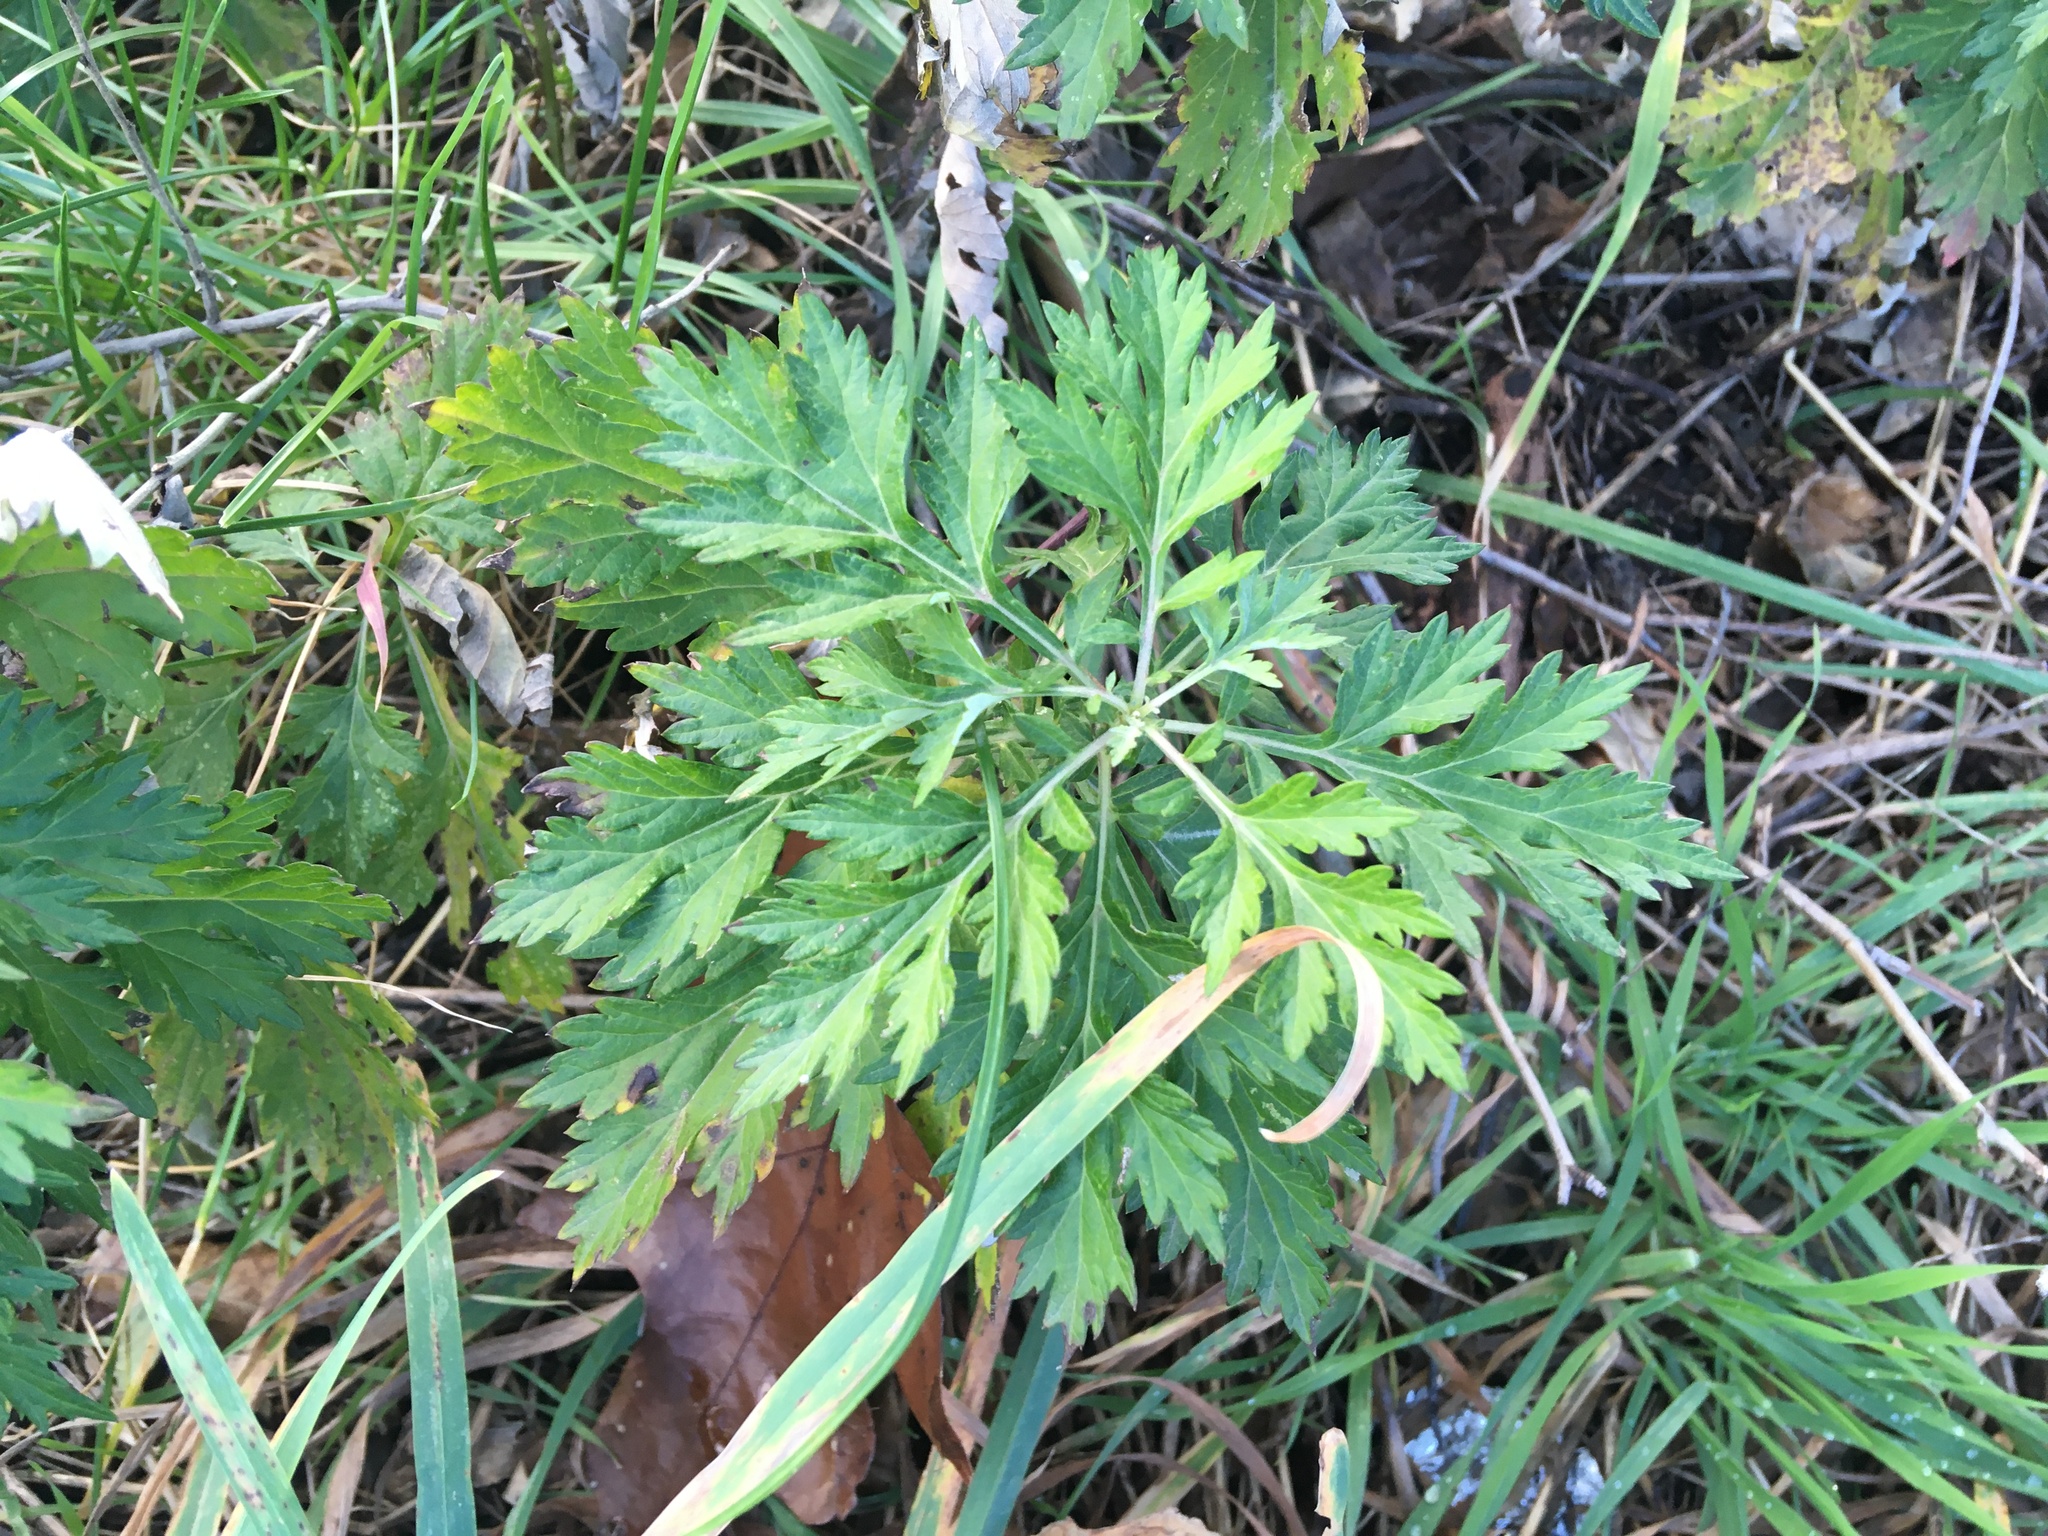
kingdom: Plantae
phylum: Tracheophyta
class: Magnoliopsida
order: Asterales
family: Asteraceae
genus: Artemisia
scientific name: Artemisia vulgaris
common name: Mugwort
